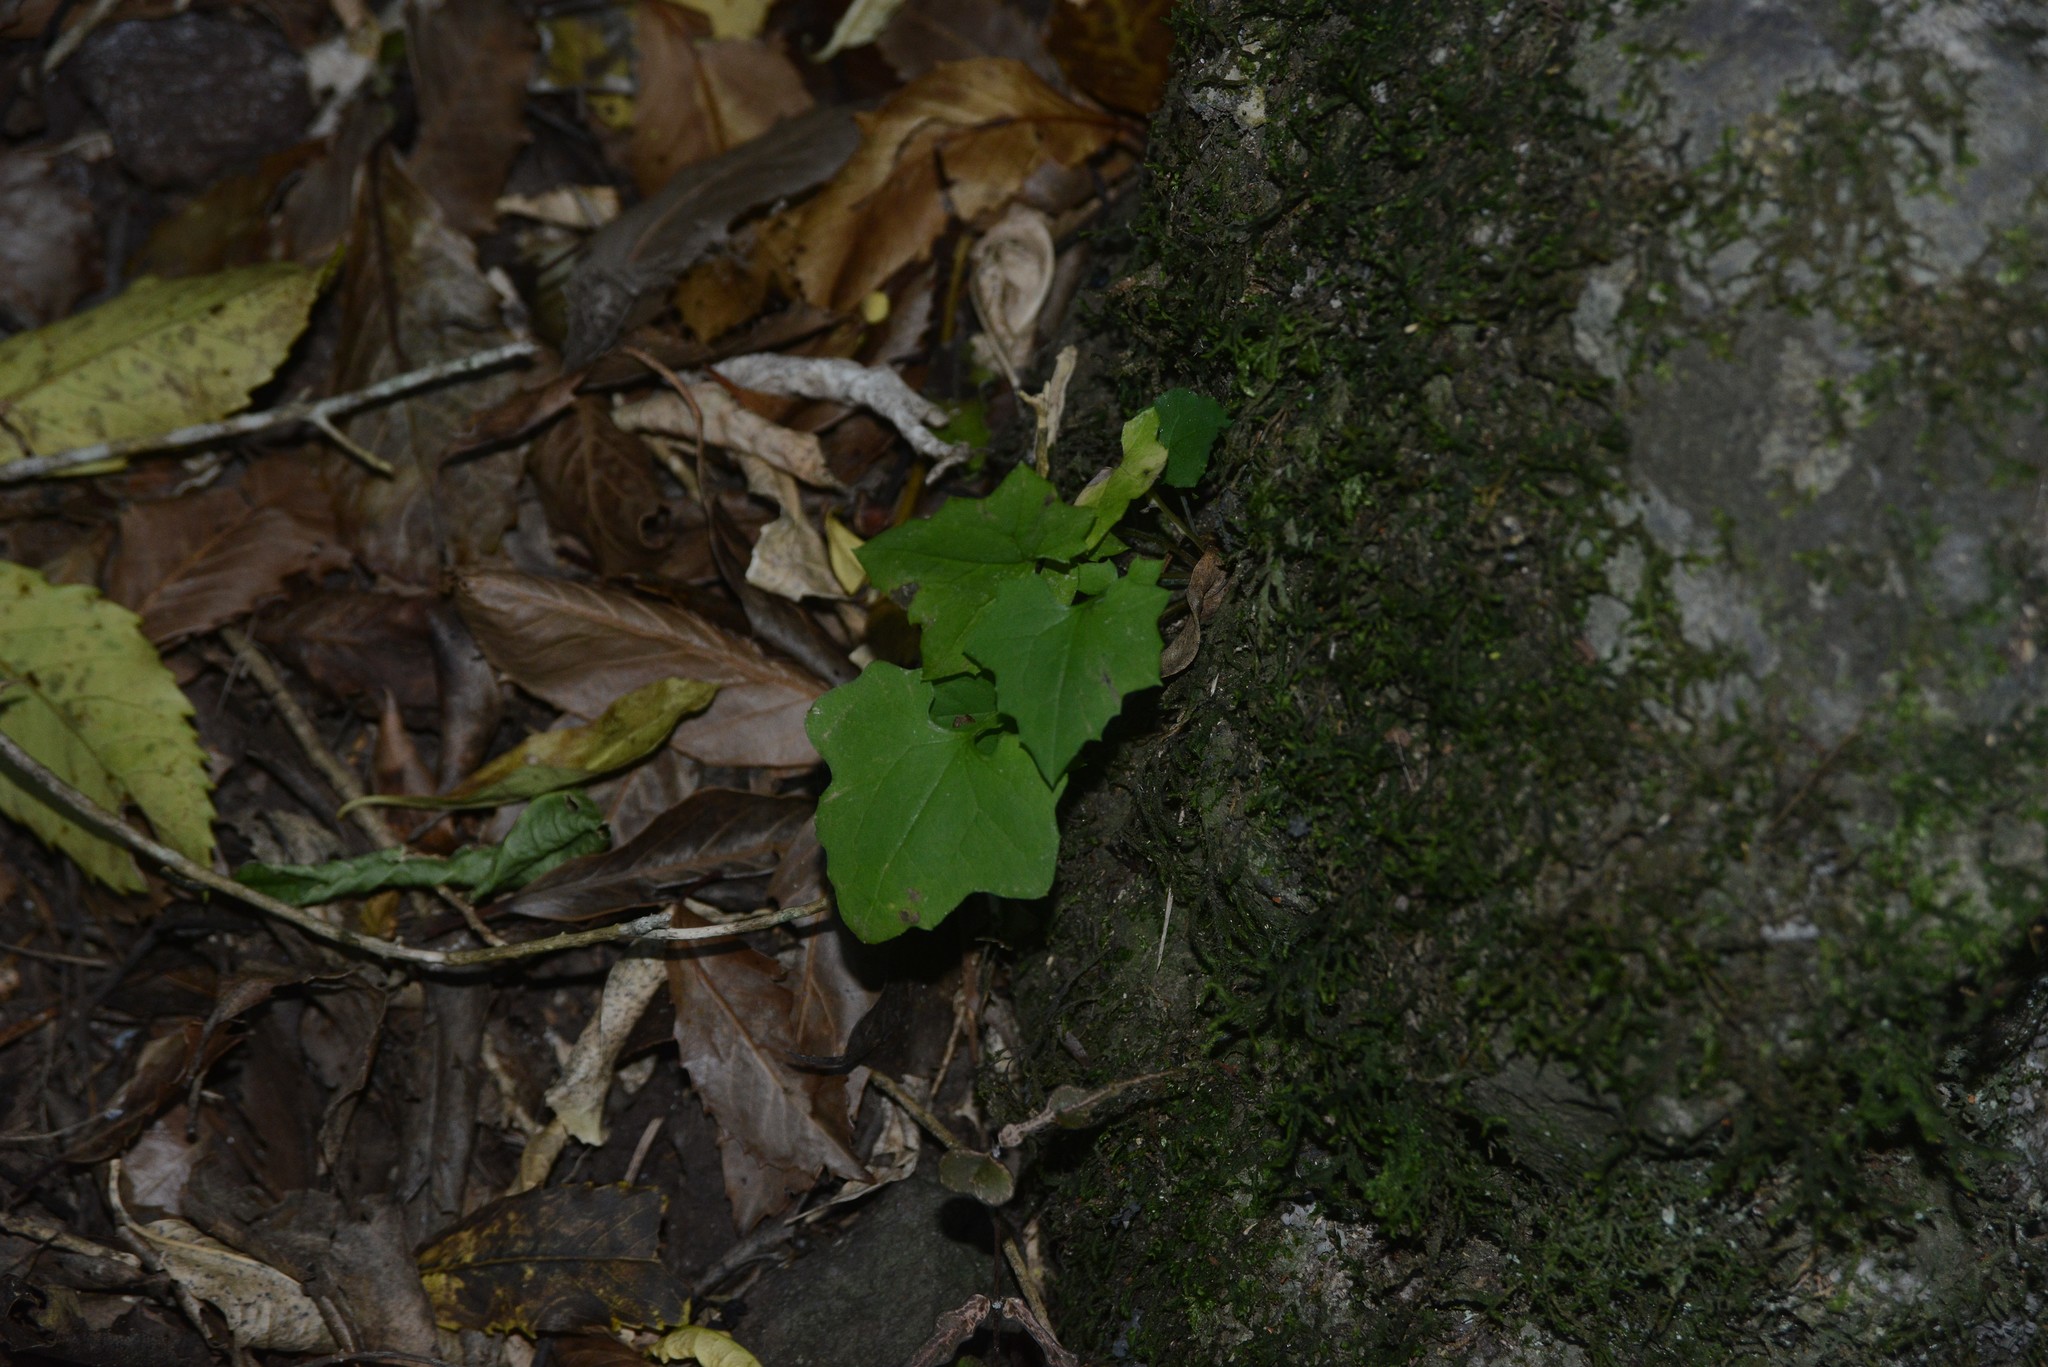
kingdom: Plantae
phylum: Tracheophyta
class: Magnoliopsida
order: Asterales
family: Asteraceae
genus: Mycelis
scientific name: Mycelis muralis
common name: Wall lettuce
